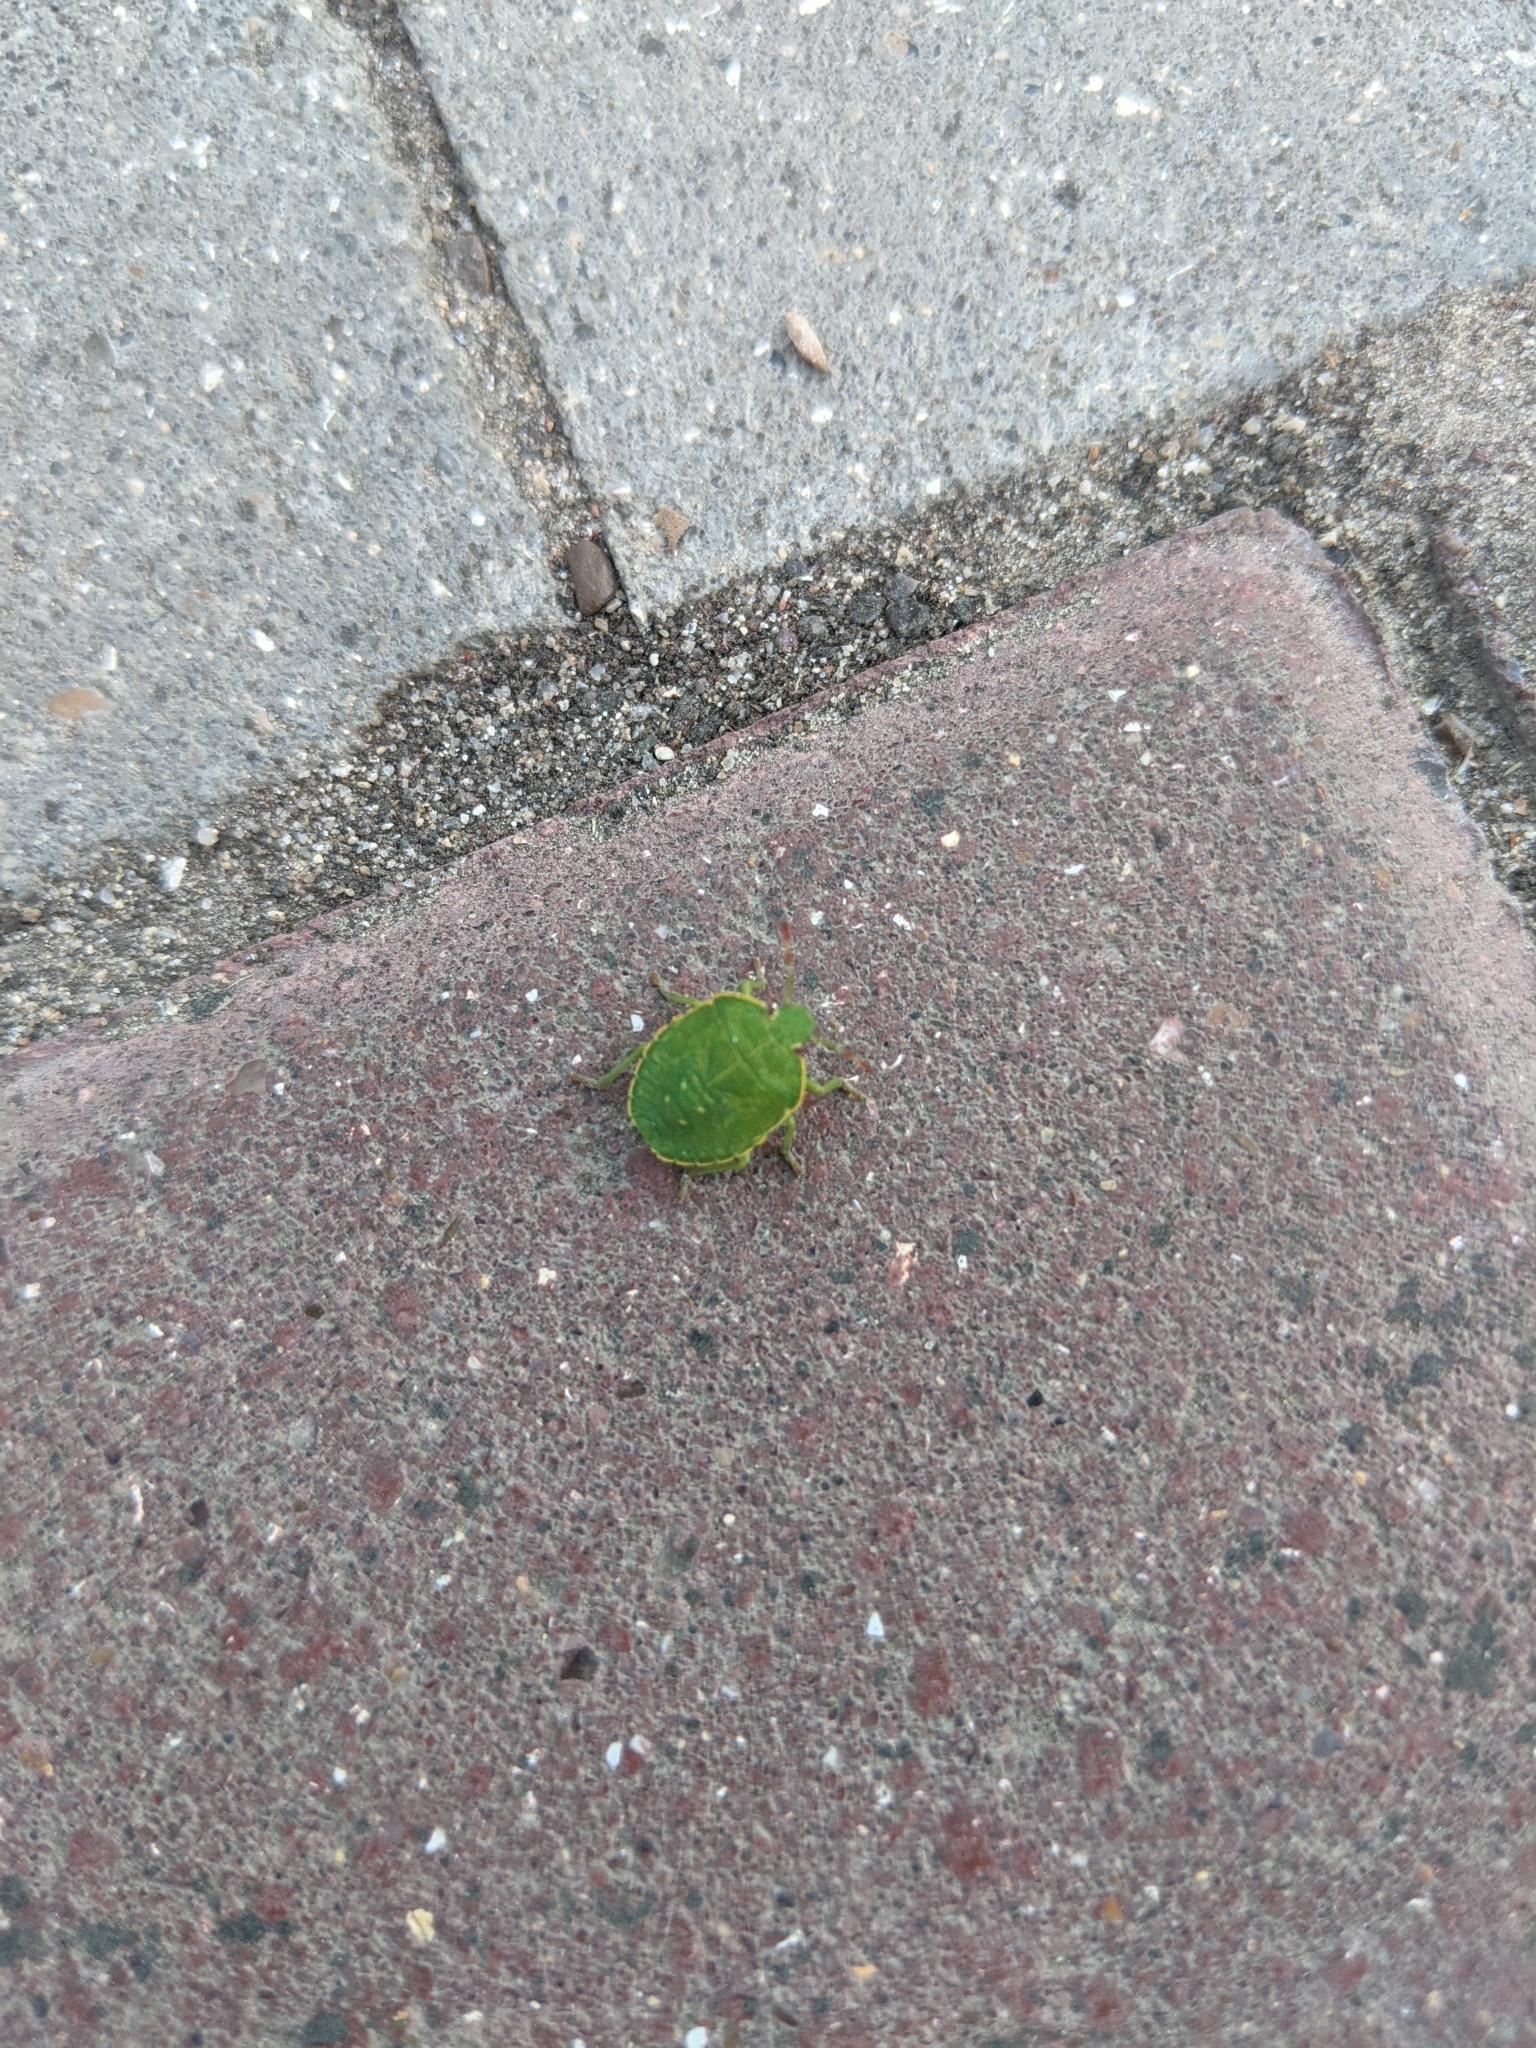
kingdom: Animalia
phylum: Arthropoda
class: Insecta
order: Hemiptera
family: Pentatomidae
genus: Palomena
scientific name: Palomena prasina
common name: Green shieldbug
